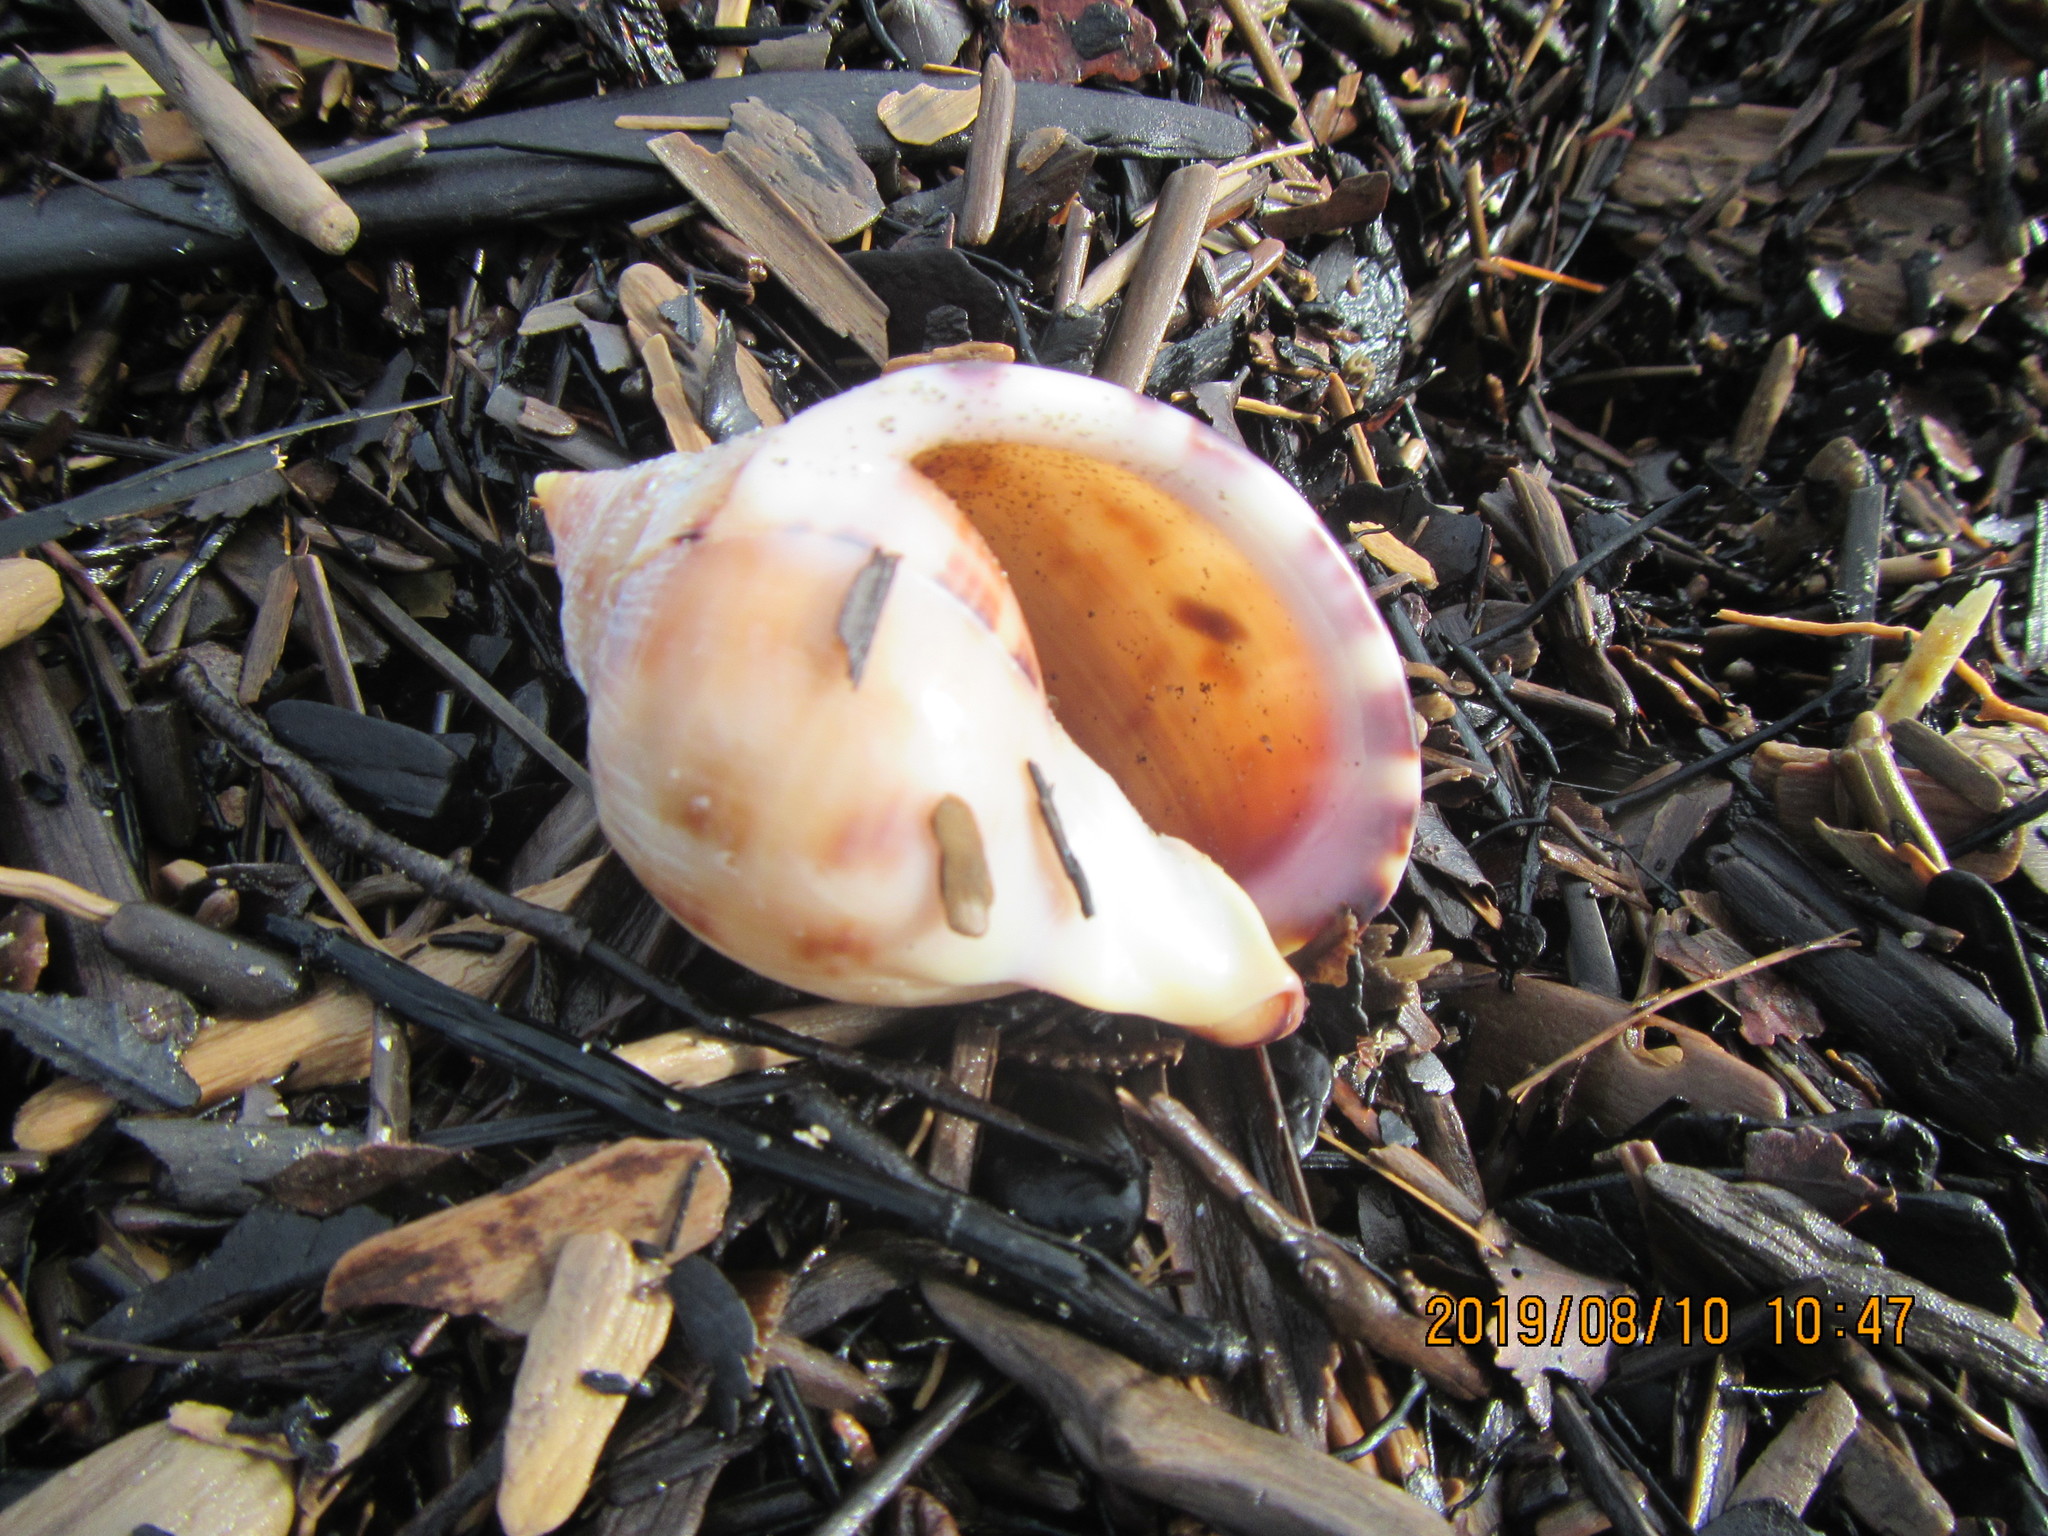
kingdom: Animalia
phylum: Mollusca
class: Gastropoda
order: Littorinimorpha
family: Cassidae
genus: Semicassis
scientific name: Semicassis pyrum
